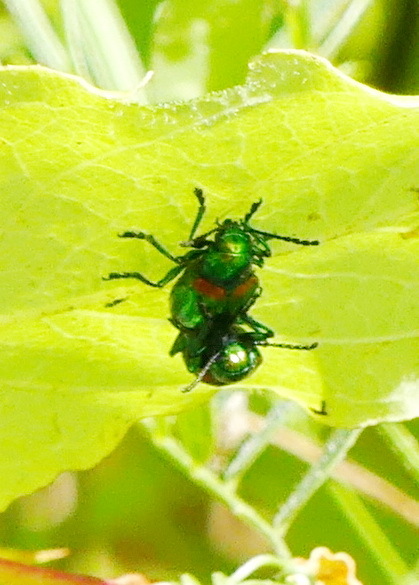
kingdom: Animalia
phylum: Arthropoda
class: Insecta
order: Coleoptera
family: Chrysomelidae
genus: Chrysochus
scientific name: Chrysochus auratus
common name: Dogbane leaf beetle
